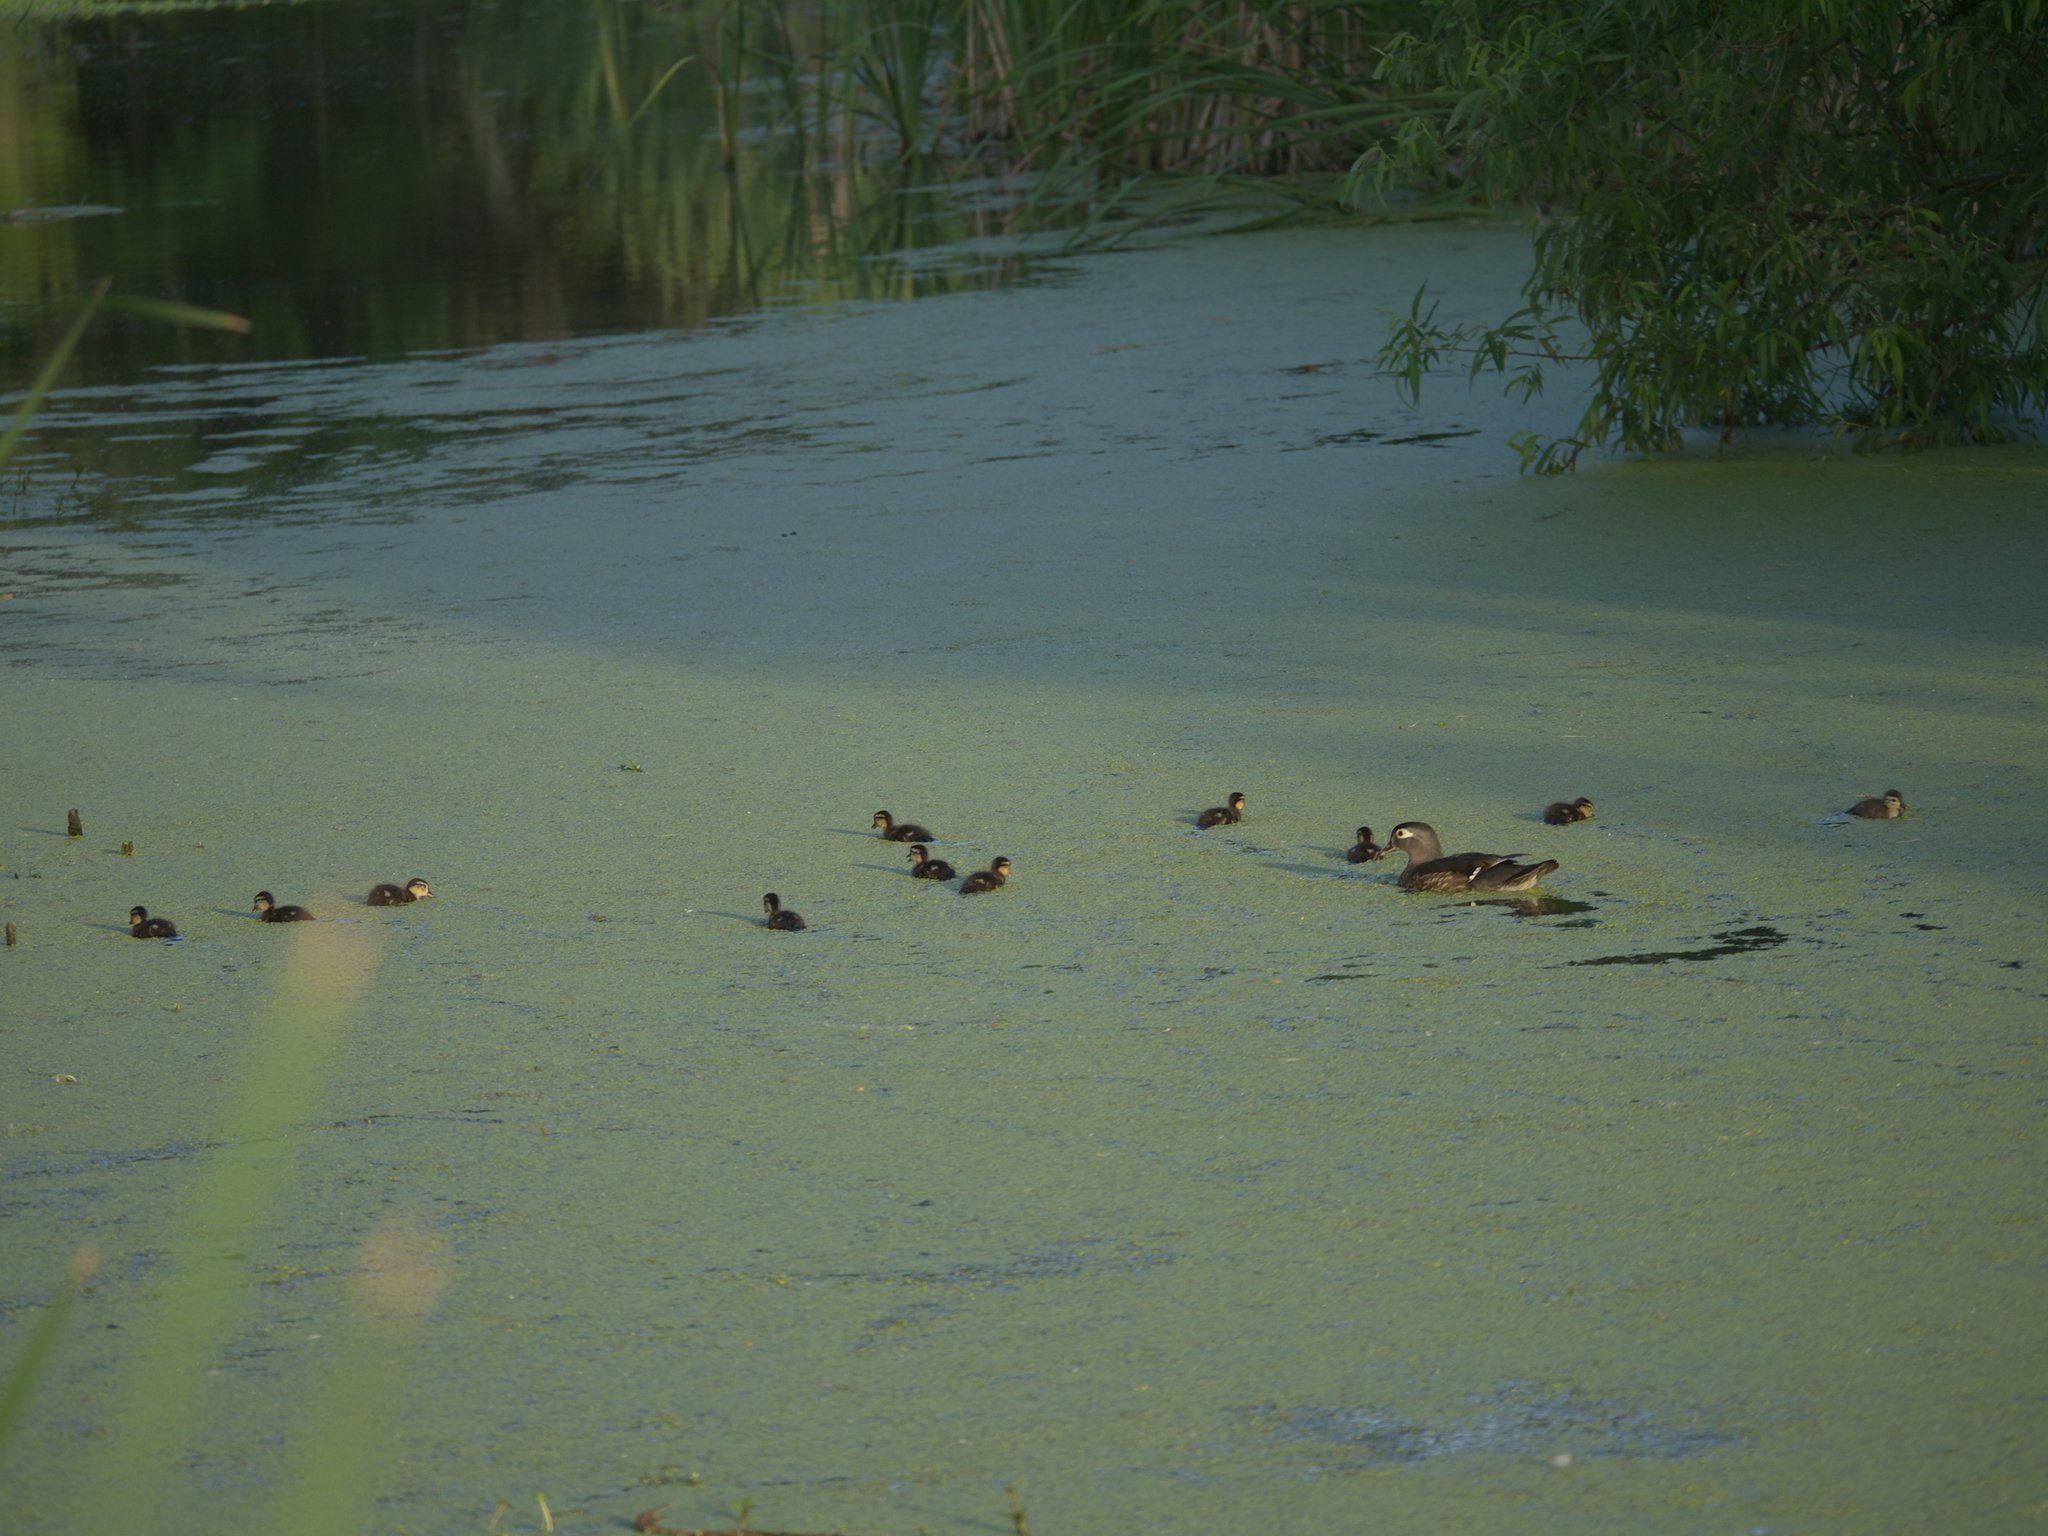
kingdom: Animalia
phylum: Chordata
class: Aves
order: Anseriformes
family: Anatidae
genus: Aix
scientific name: Aix sponsa
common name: Wood duck
